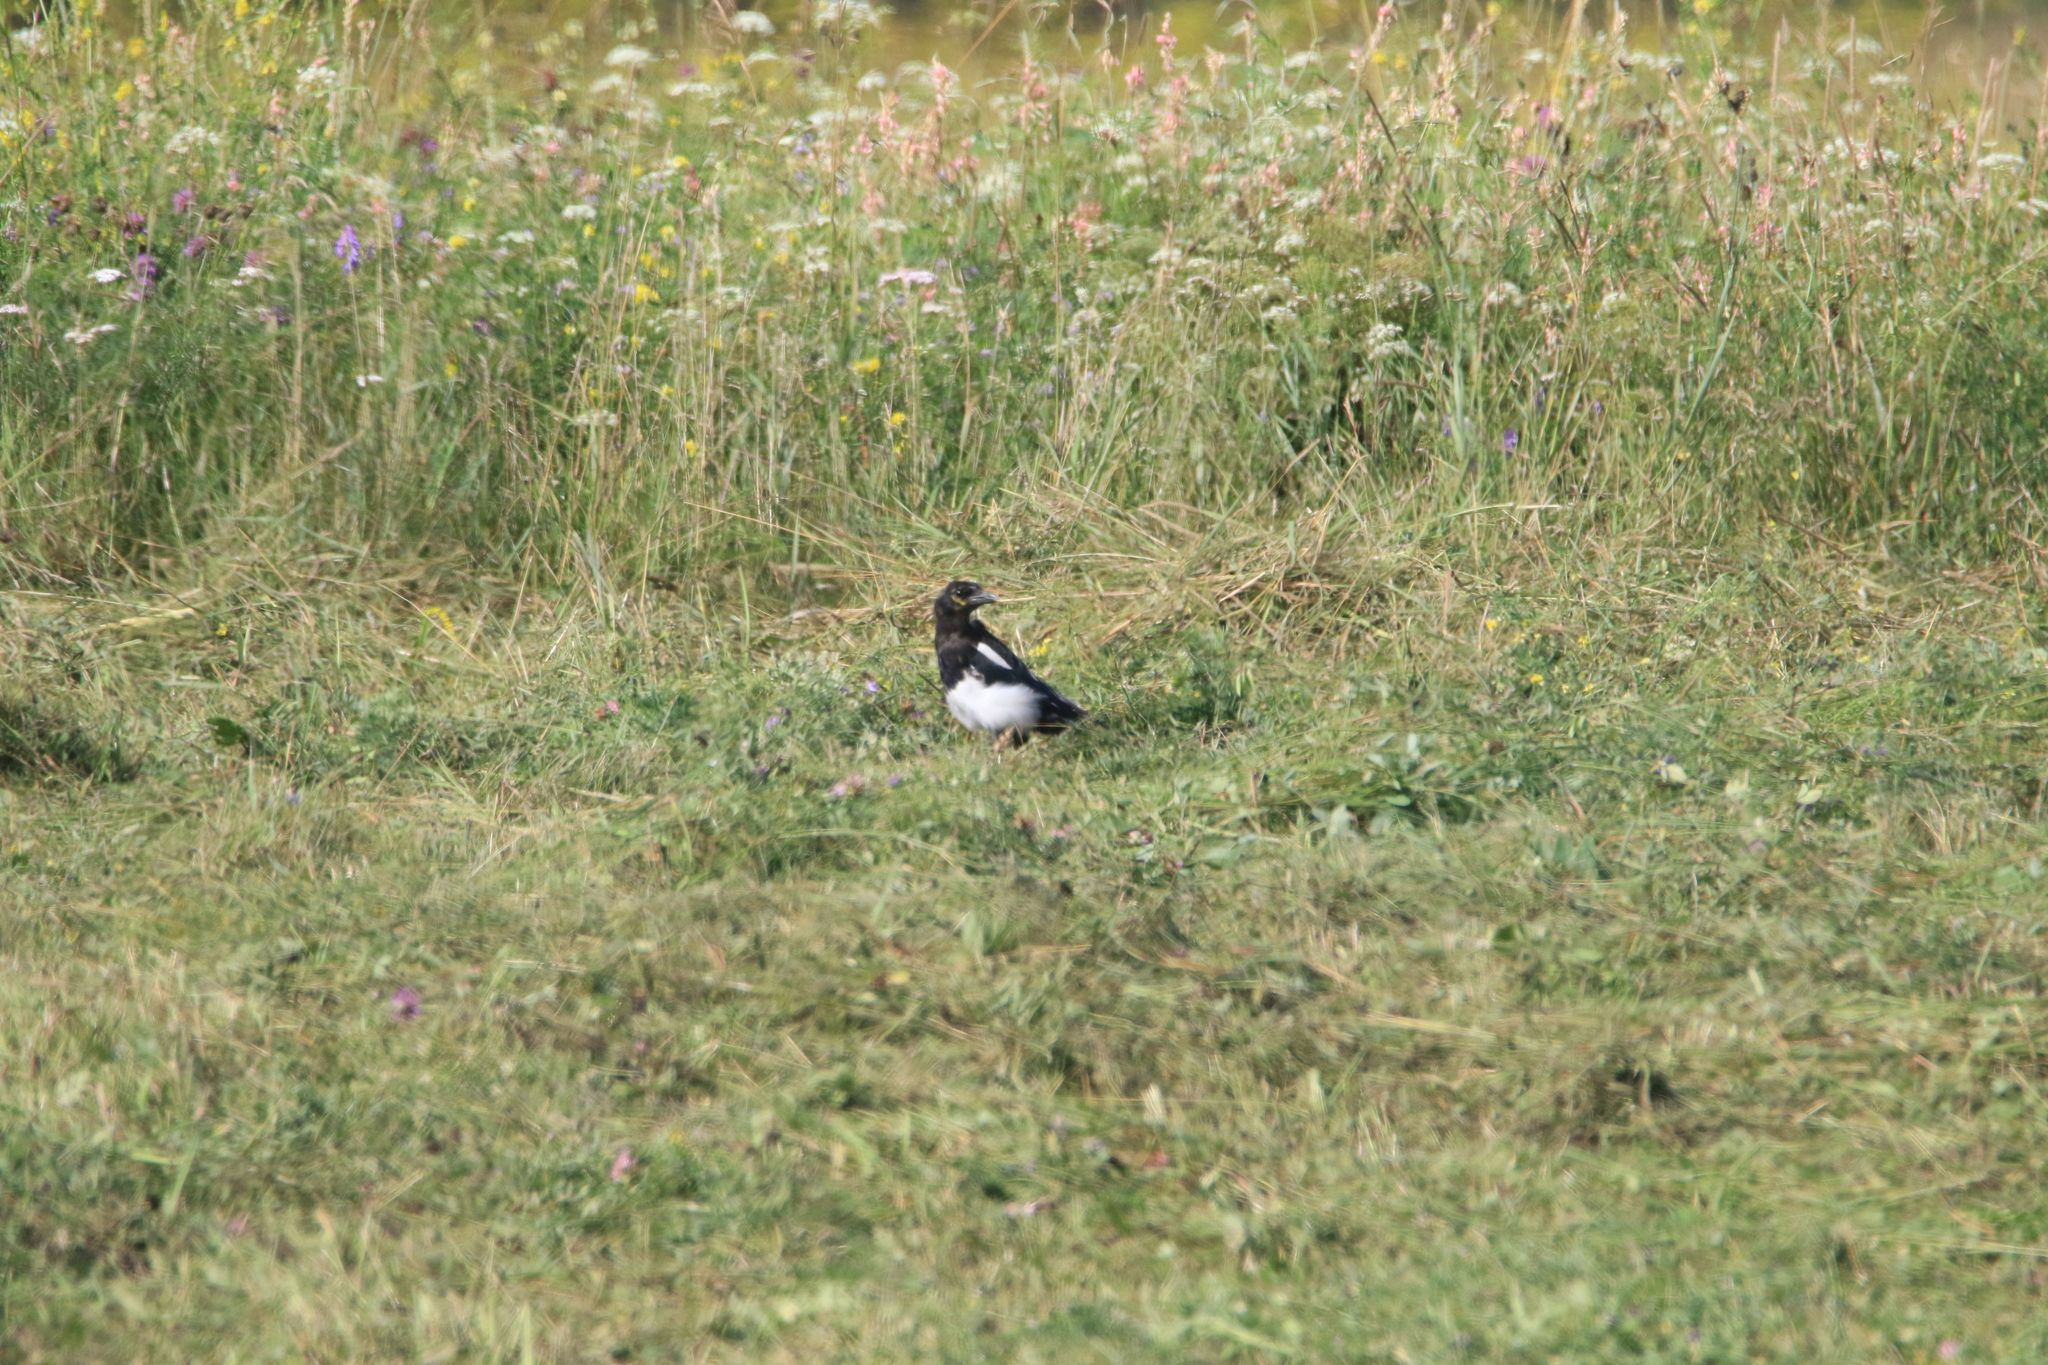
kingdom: Animalia
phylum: Chordata
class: Aves
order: Passeriformes
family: Corvidae
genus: Pica
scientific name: Pica pica
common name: Eurasian magpie
